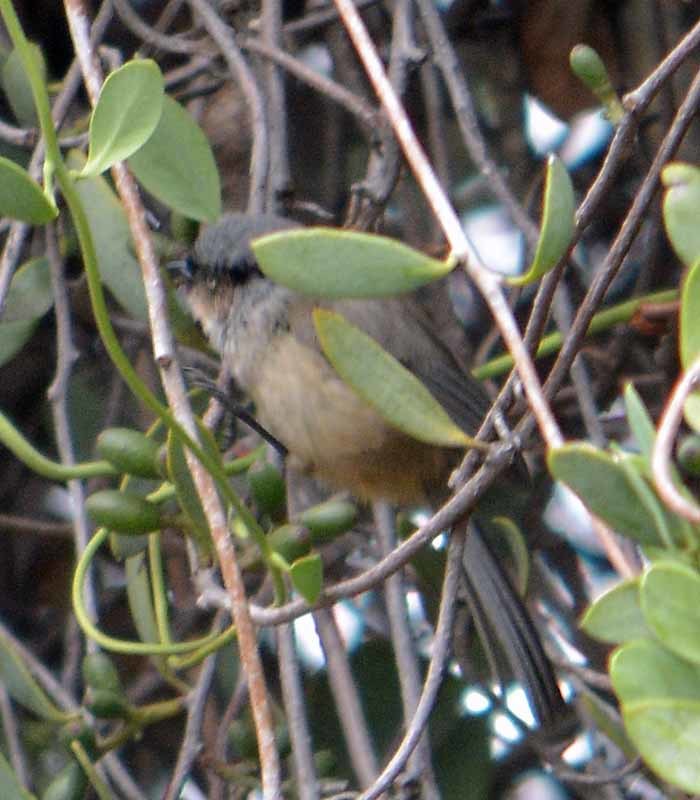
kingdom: Animalia
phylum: Chordata
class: Aves
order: Passeriformes
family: Aegithalidae
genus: Psaltriparus
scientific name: Psaltriparus minimus
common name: American bushtit
